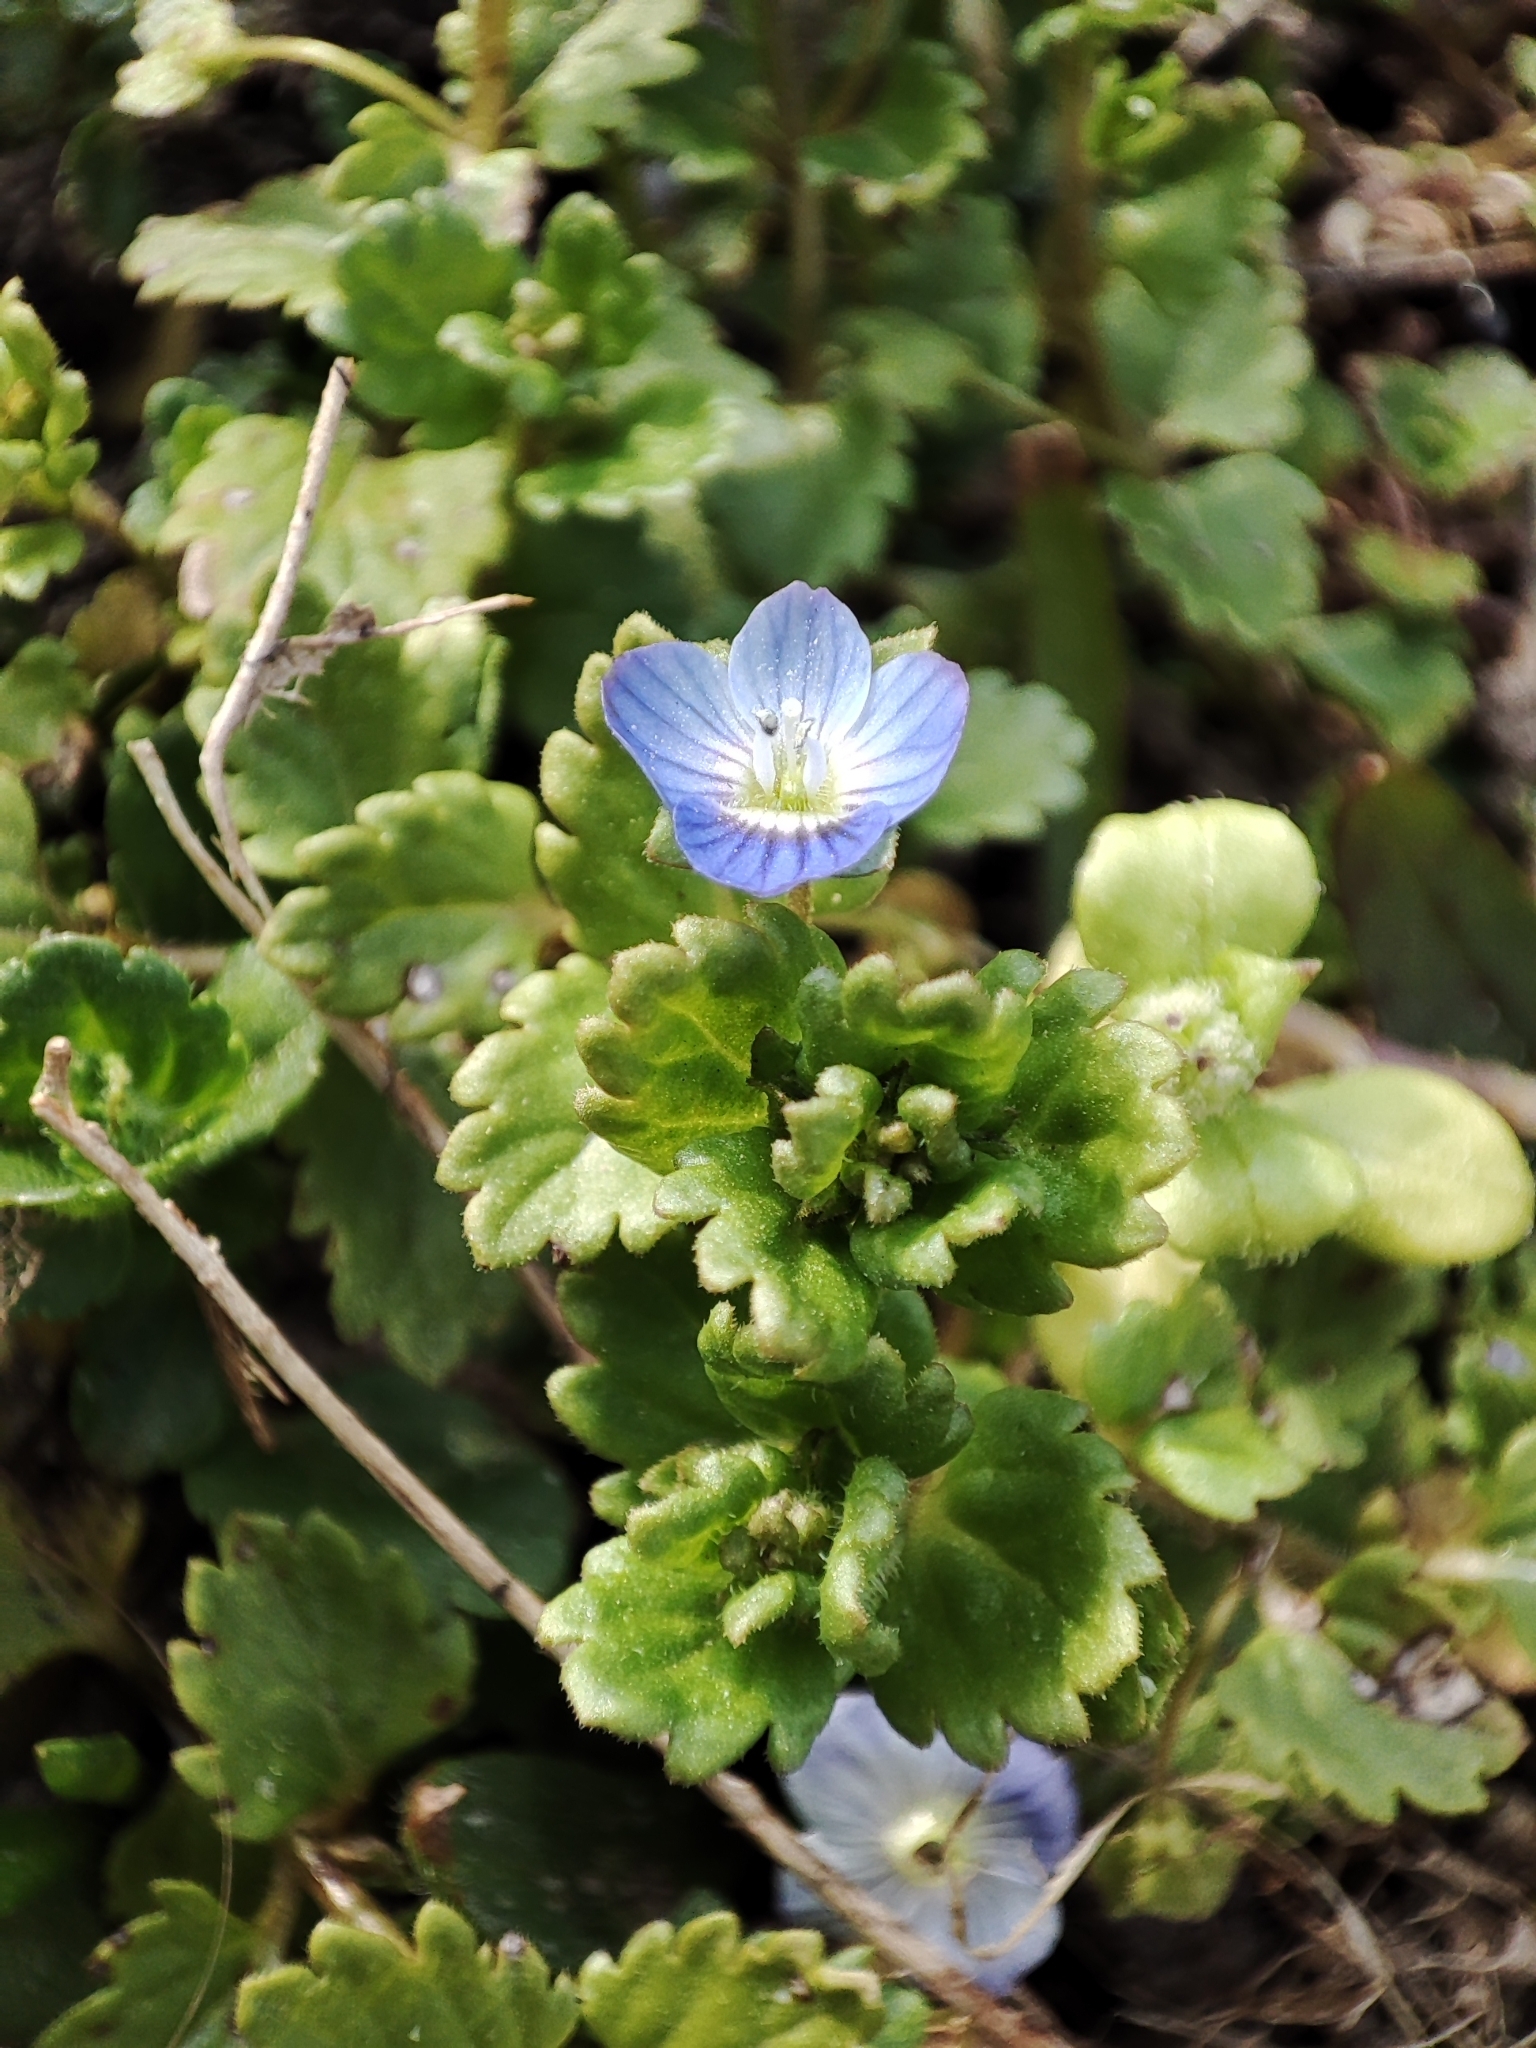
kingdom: Plantae
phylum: Tracheophyta
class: Magnoliopsida
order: Lamiales
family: Plantaginaceae
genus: Veronica
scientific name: Veronica polita
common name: Grey field-speedwell
